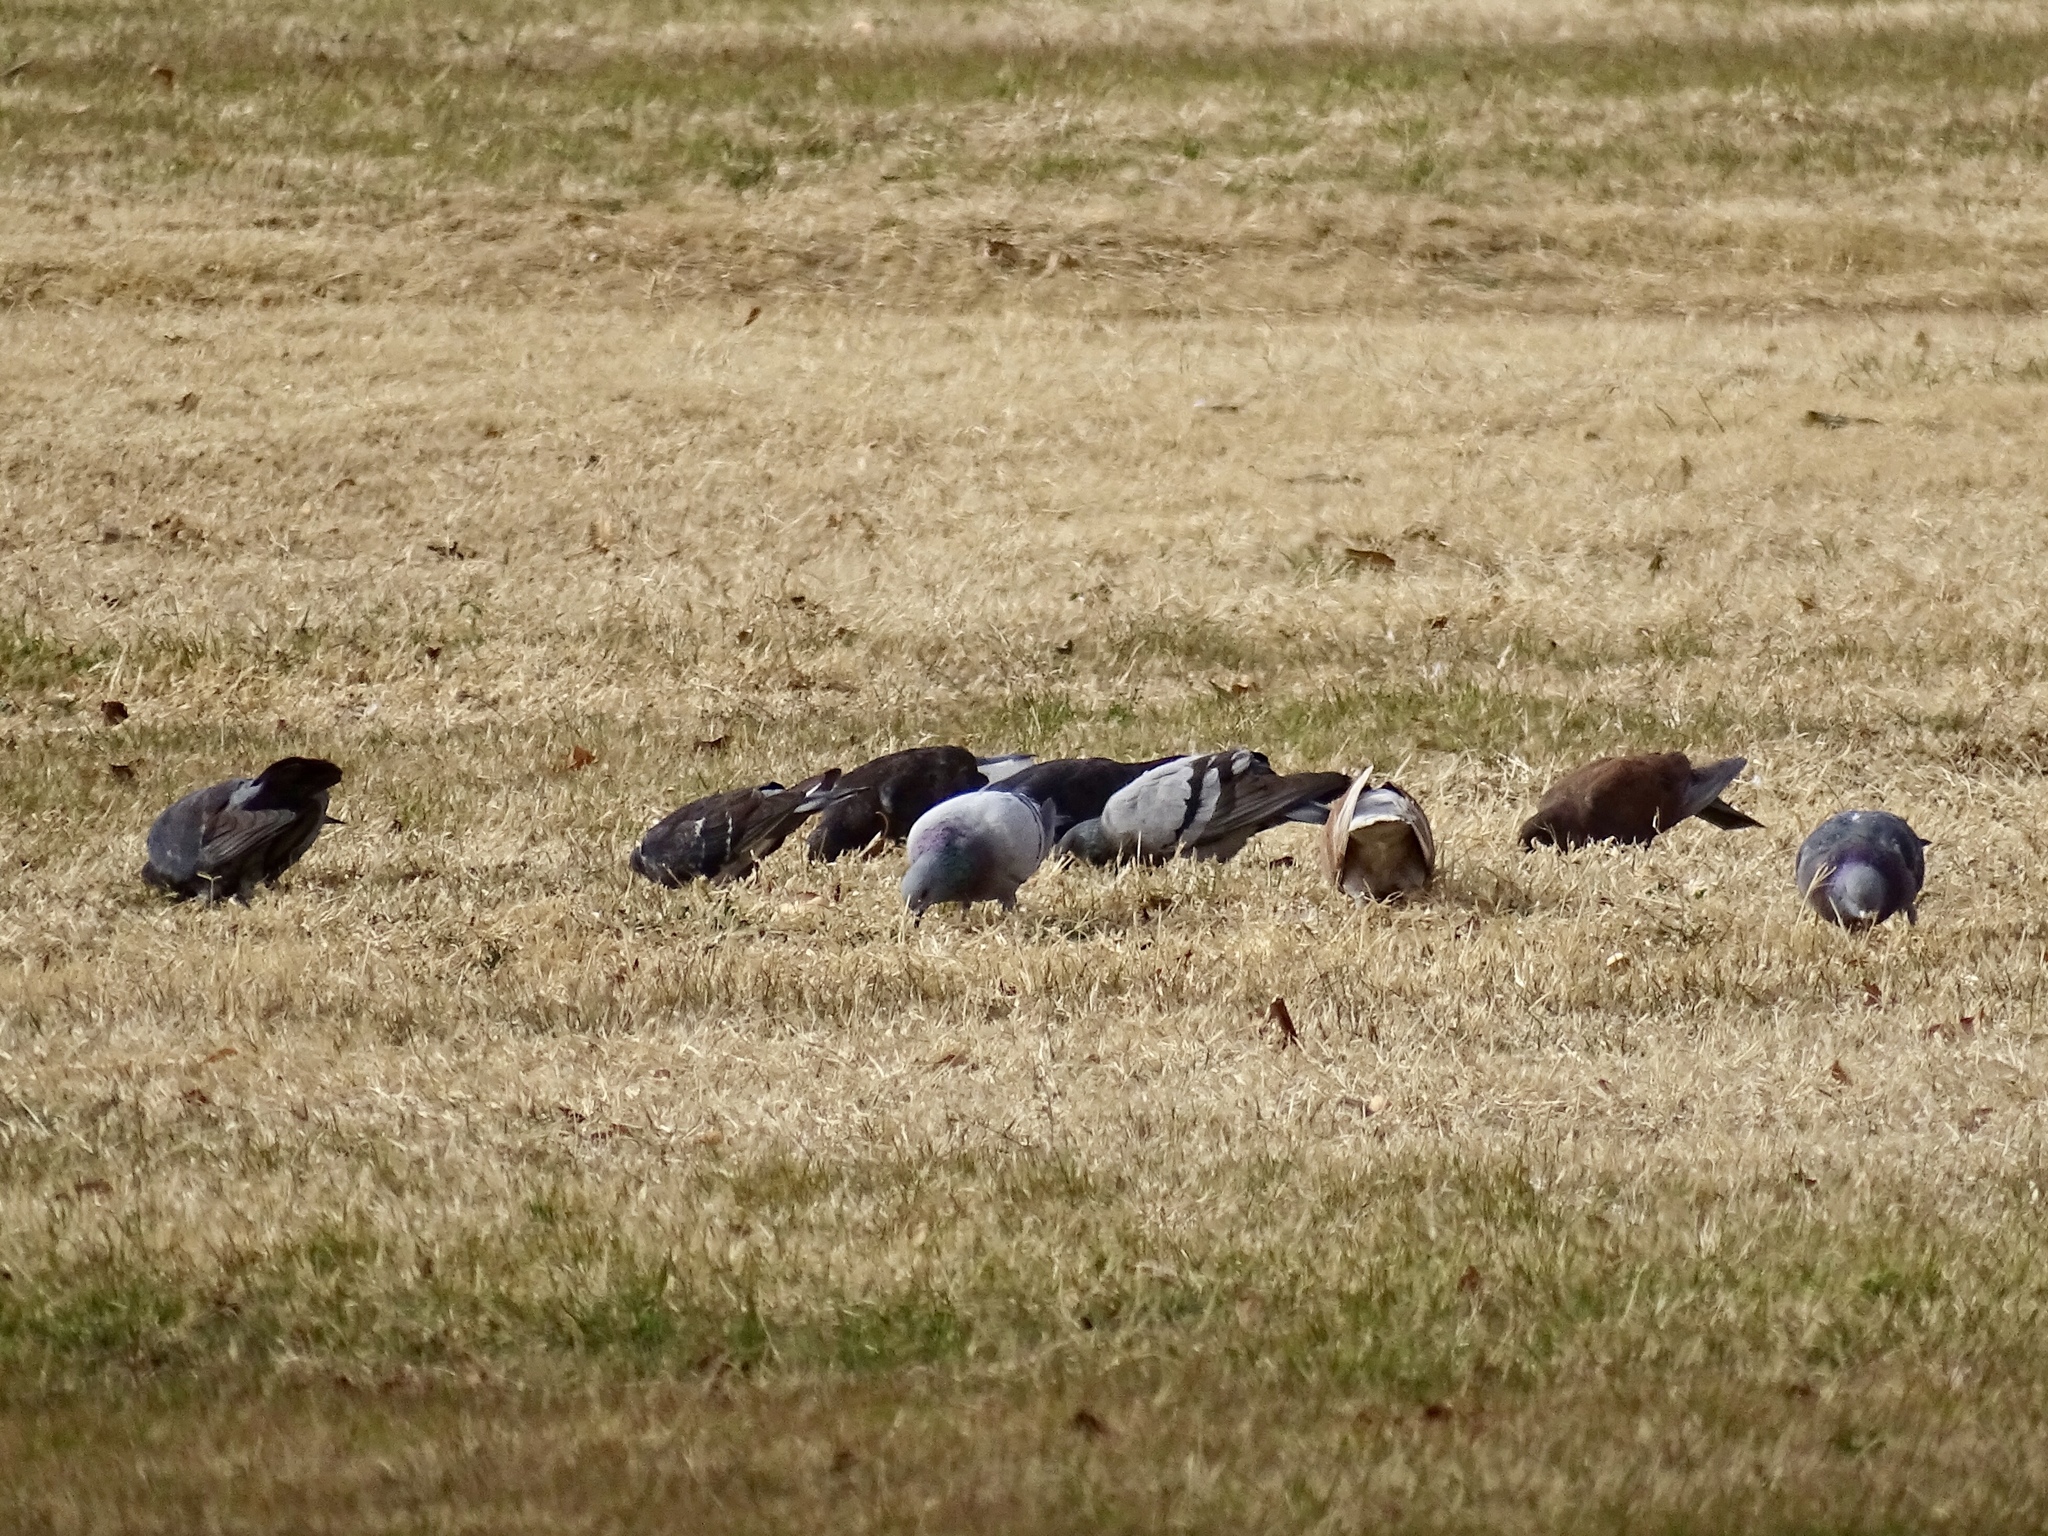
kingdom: Animalia
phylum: Chordata
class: Aves
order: Columbiformes
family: Columbidae
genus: Columba
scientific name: Columba livia
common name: Rock pigeon
